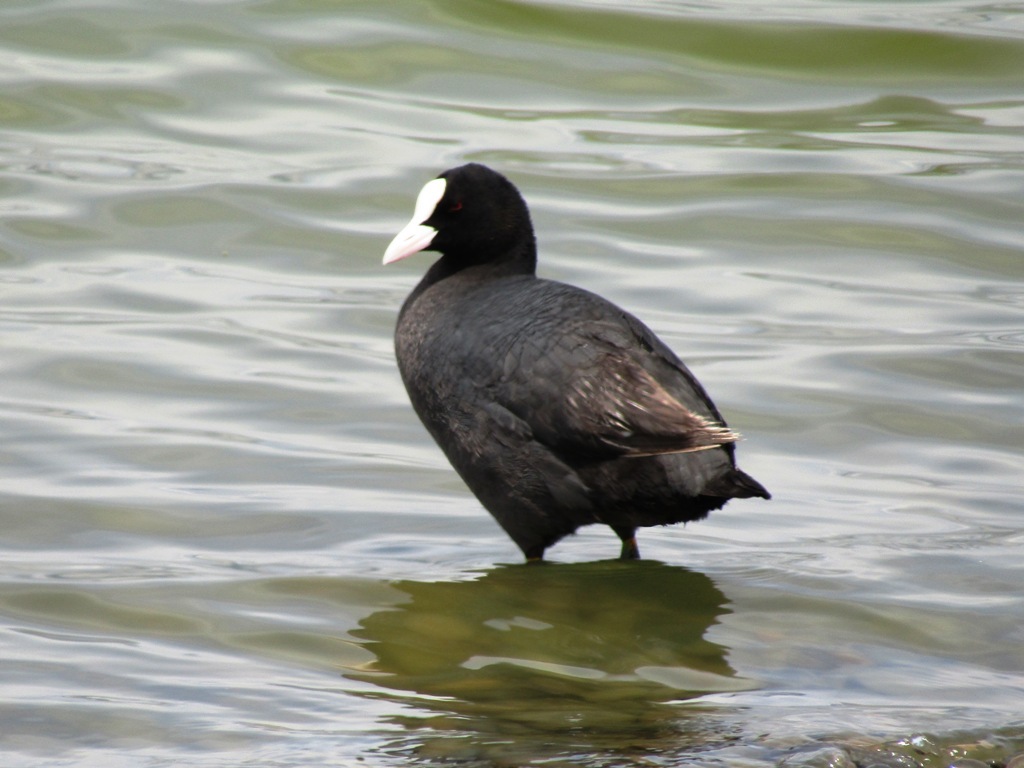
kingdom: Animalia
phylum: Chordata
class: Aves
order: Gruiformes
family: Rallidae
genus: Fulica
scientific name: Fulica atra
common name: Eurasian coot
